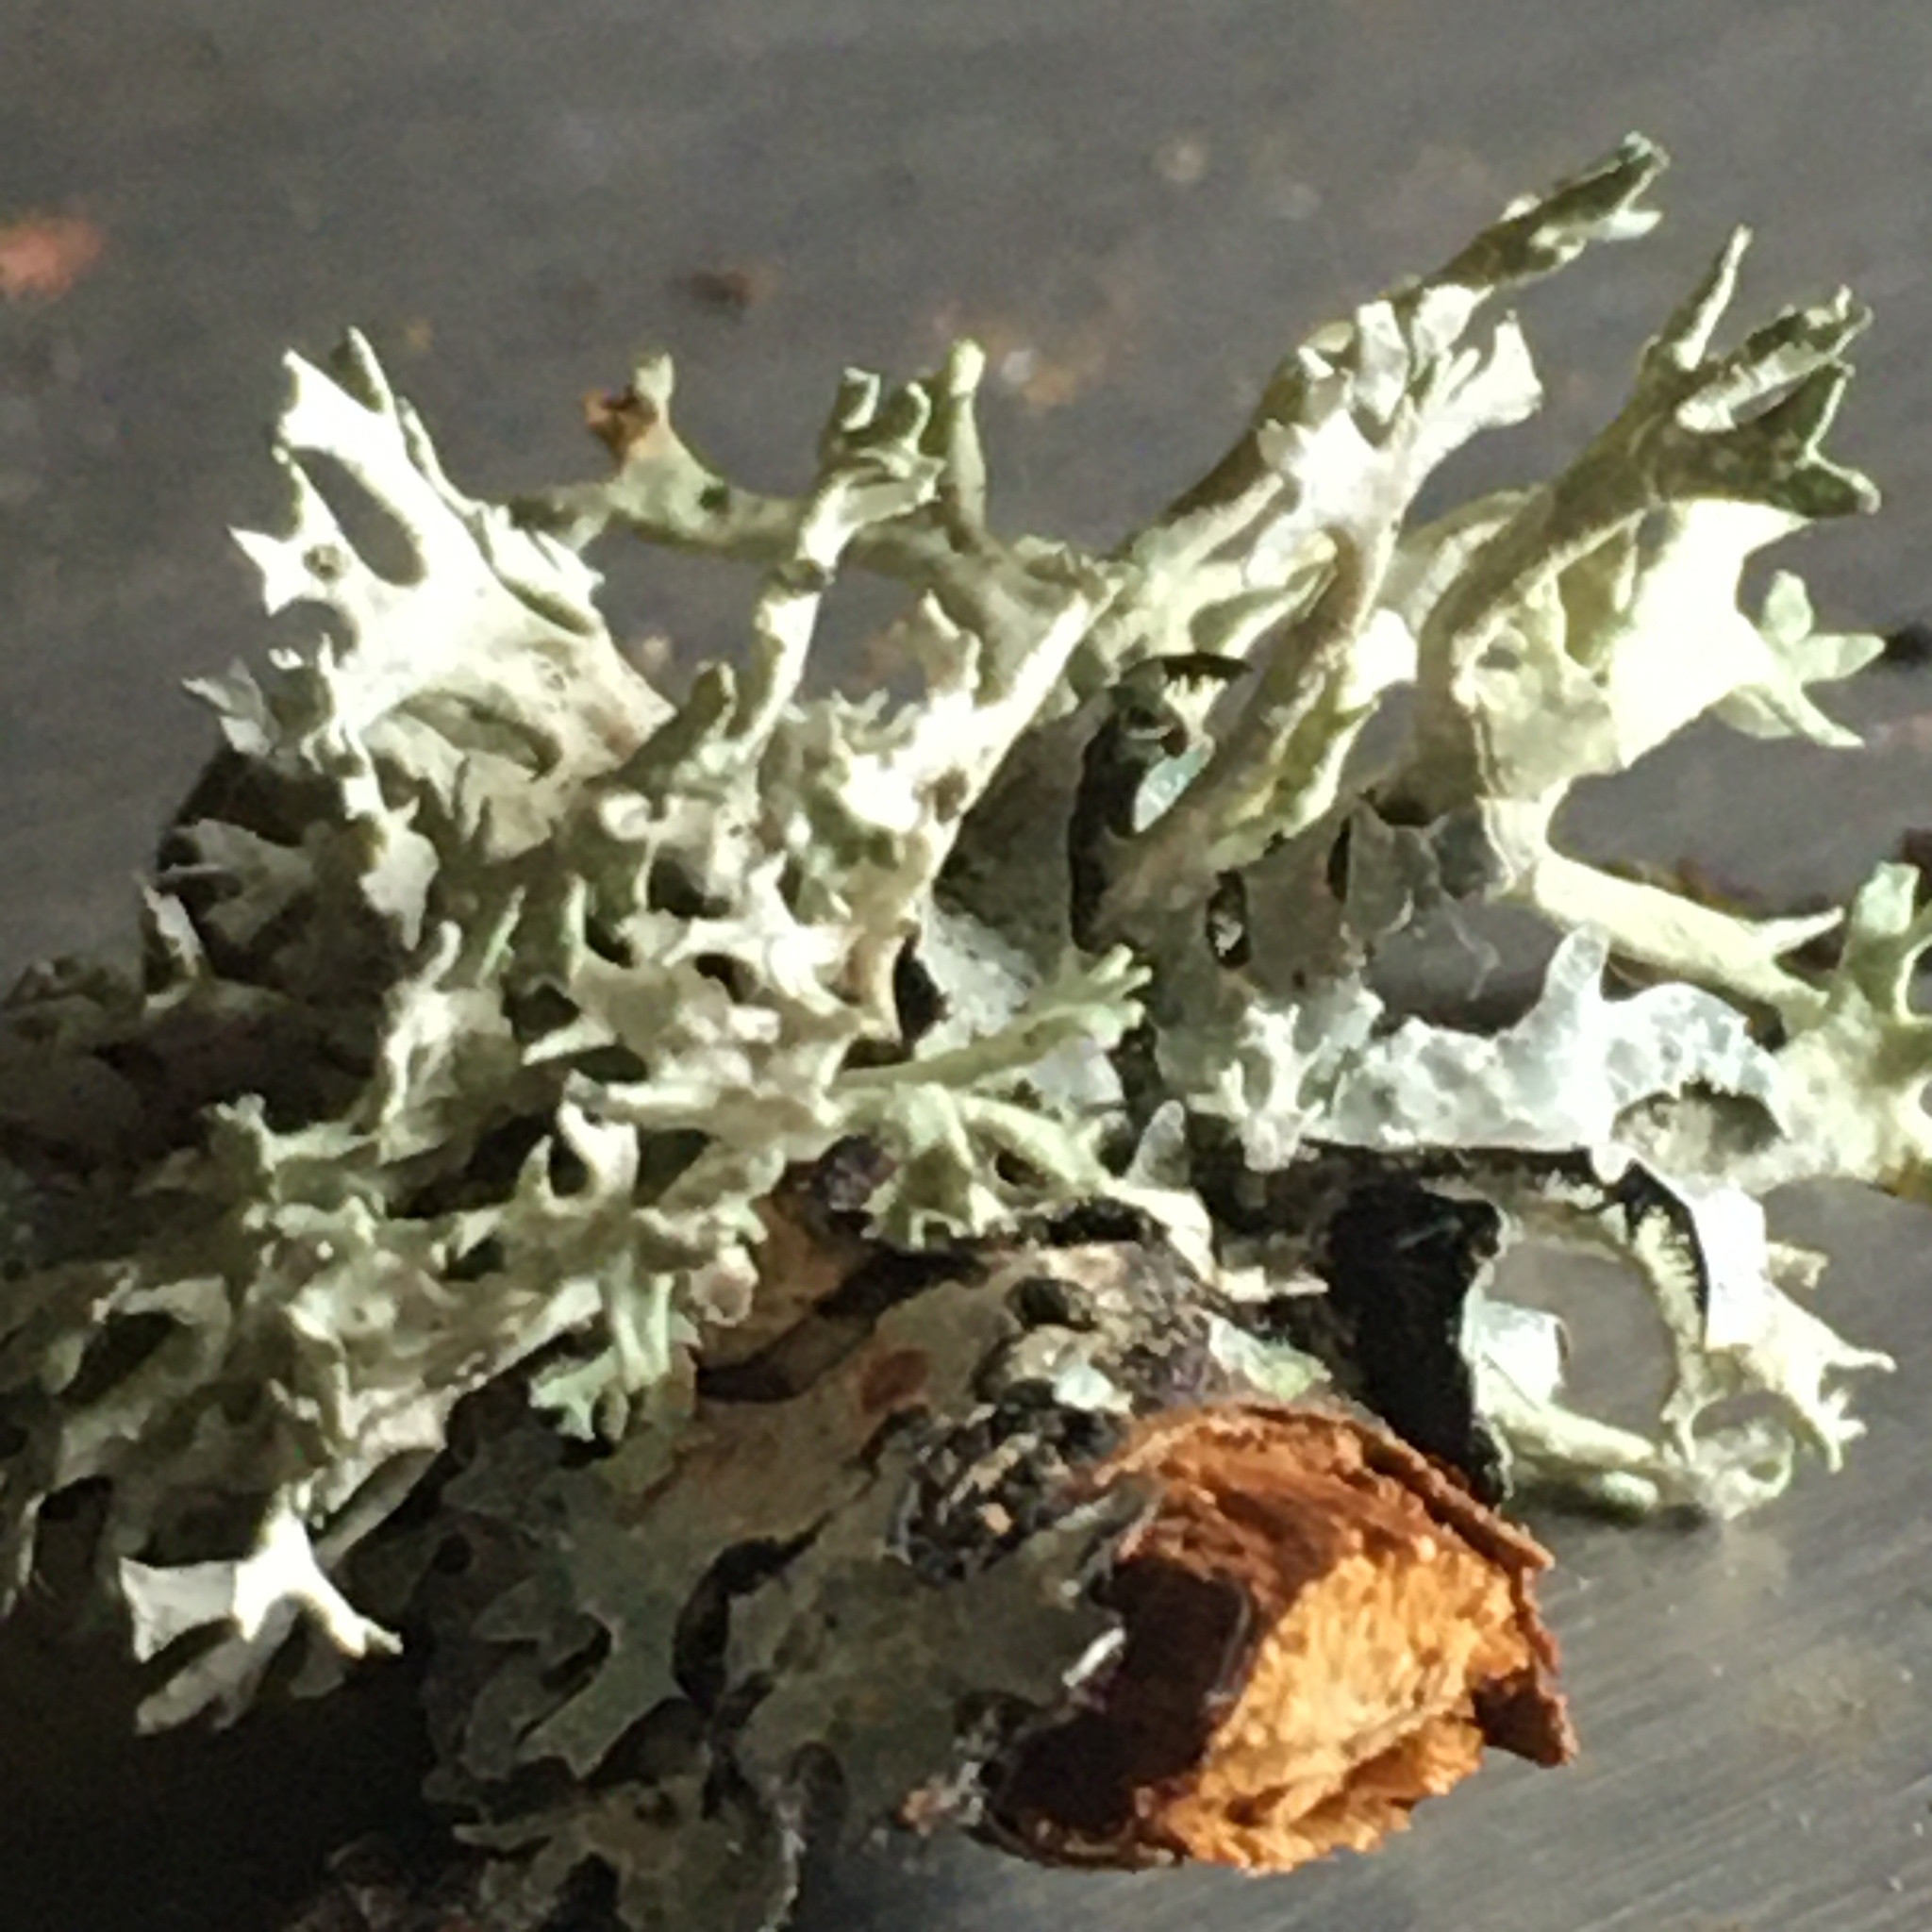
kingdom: Fungi
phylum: Ascomycota
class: Lecanoromycetes
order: Lecanorales
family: Parmeliaceae
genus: Evernia
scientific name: Evernia prunastri
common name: Oak moss
